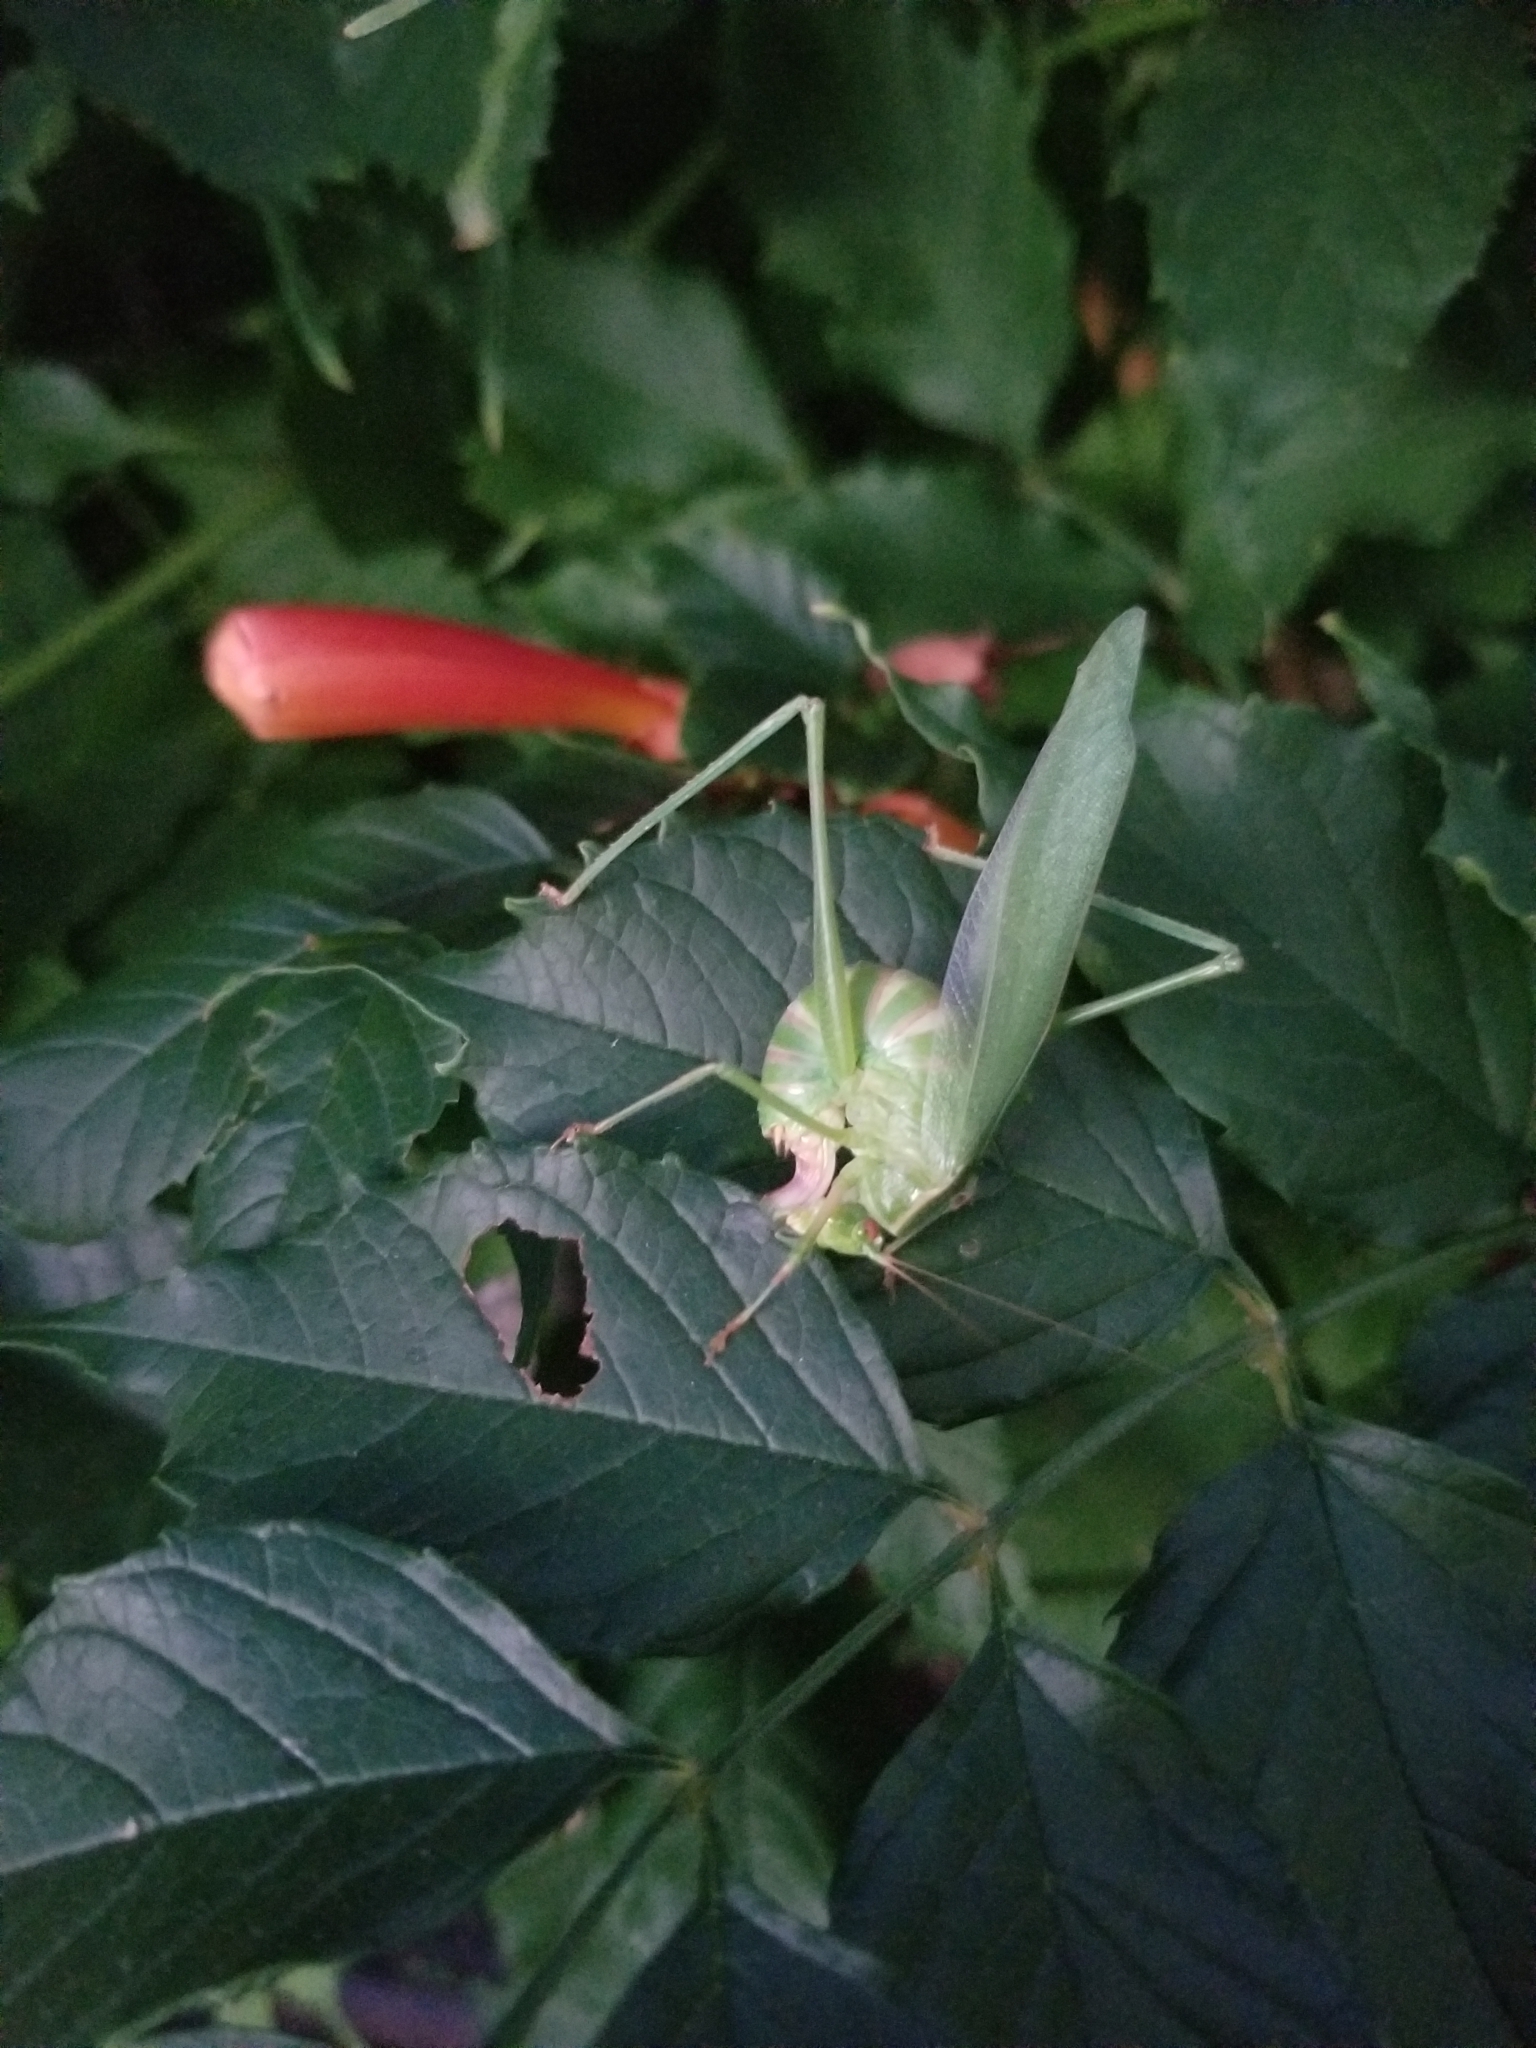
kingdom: Animalia
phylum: Arthropoda
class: Insecta
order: Orthoptera
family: Tettigoniidae
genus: Scudderia
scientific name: Scudderia furcata
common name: Fork-tailed bush katydid
